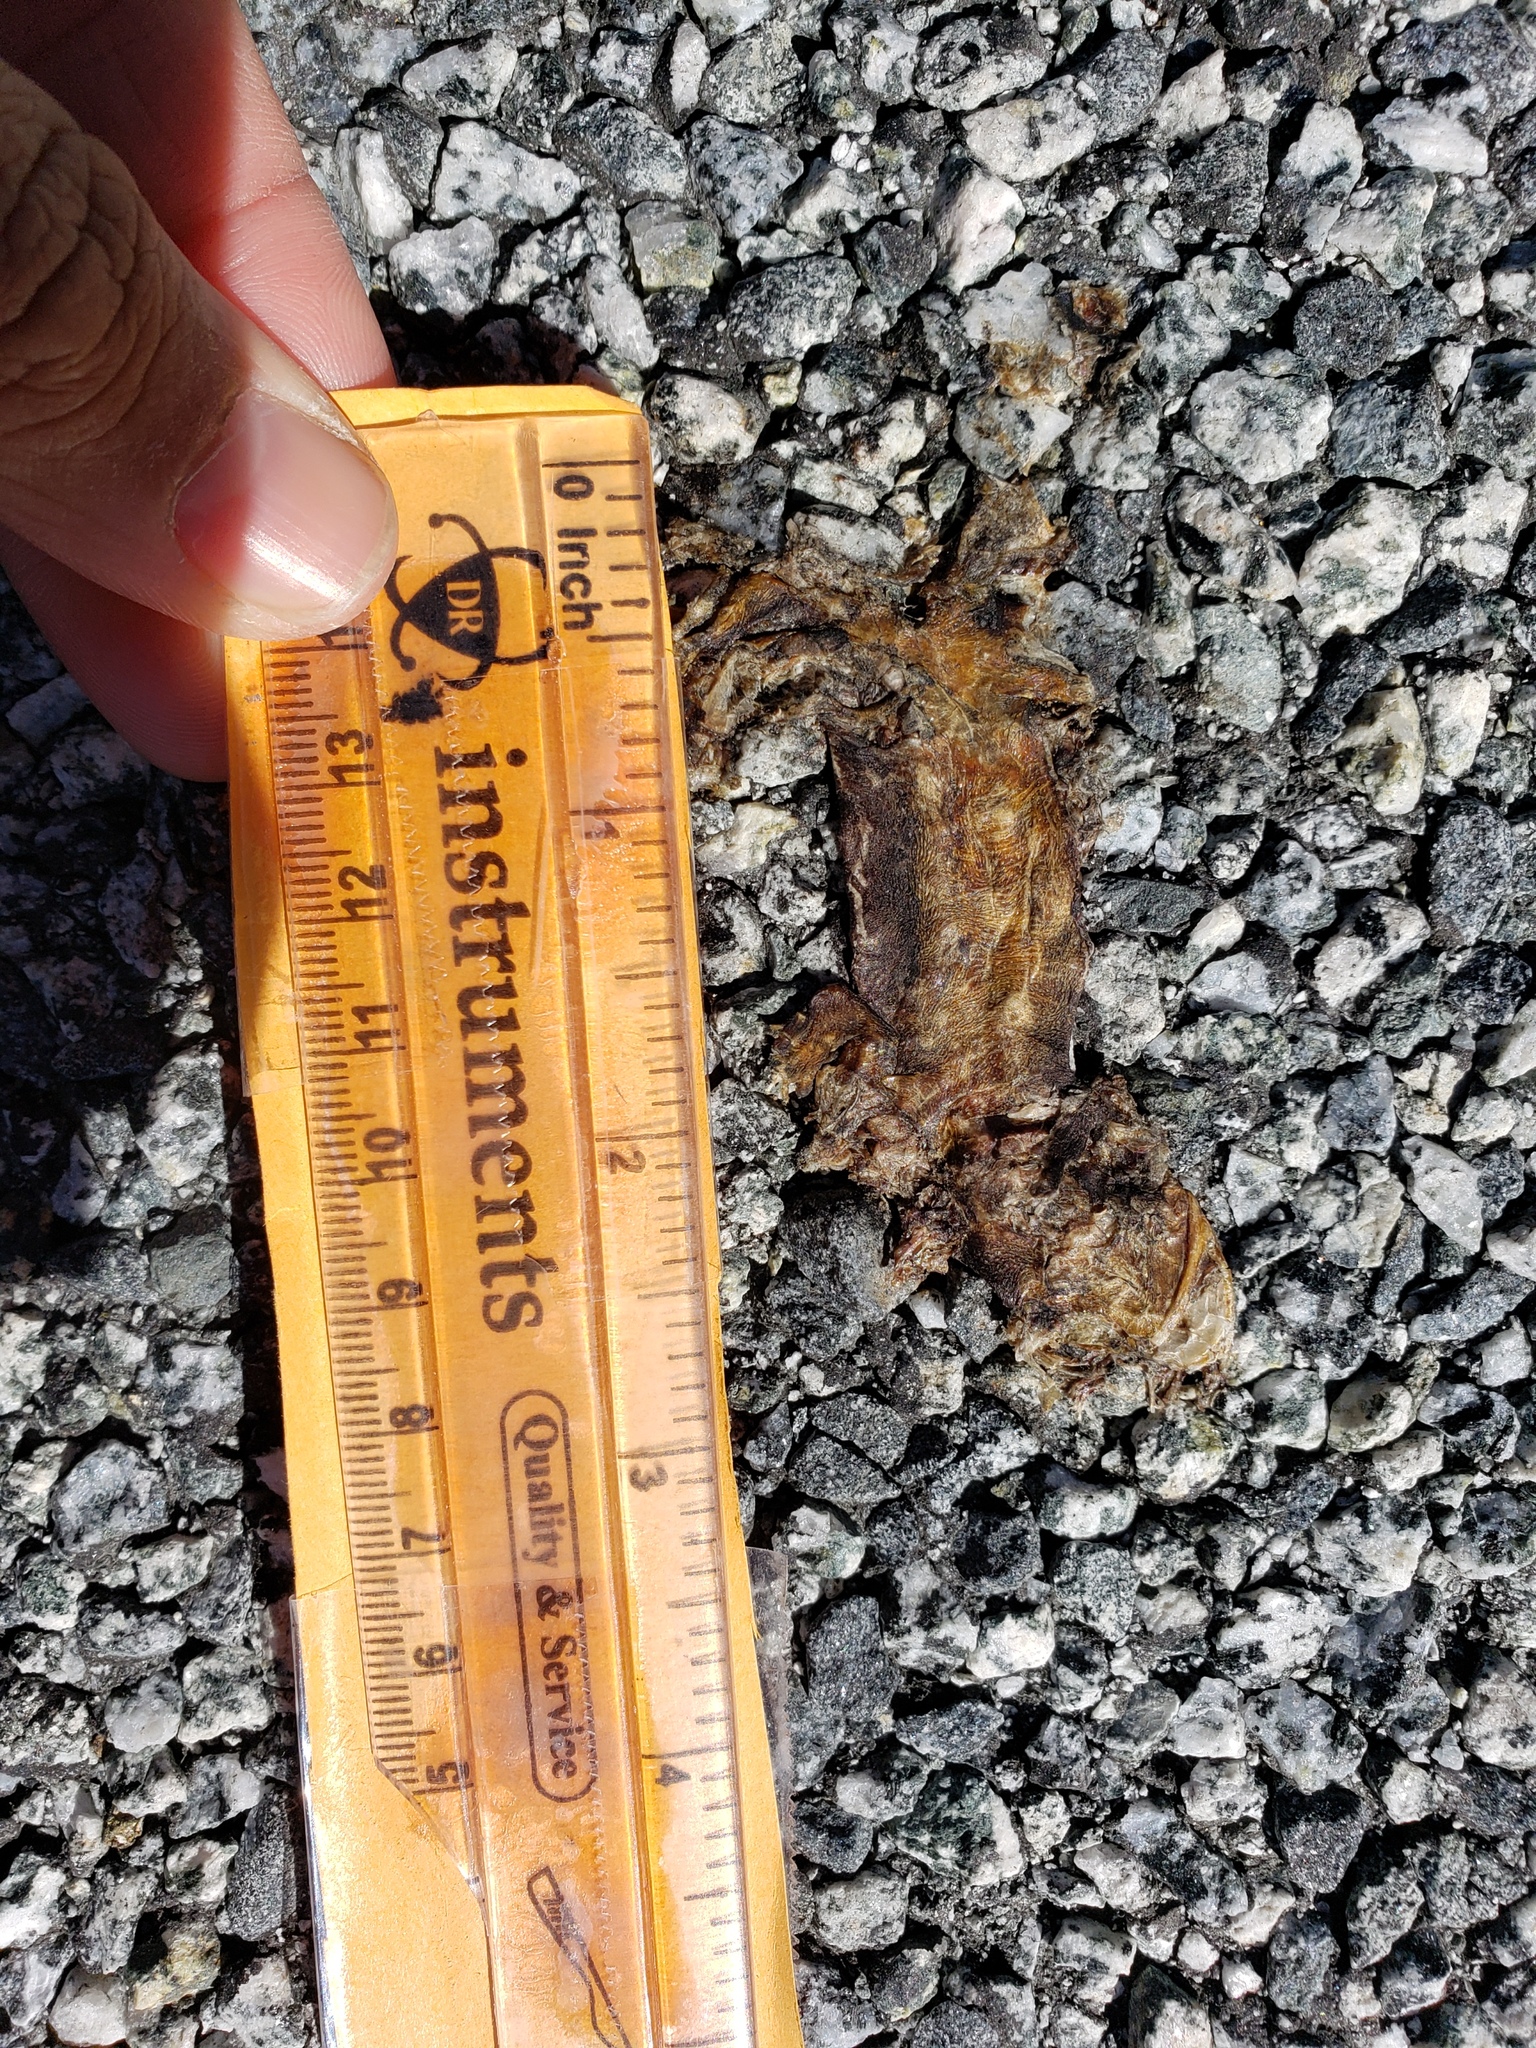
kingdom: Animalia
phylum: Chordata
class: Amphibia
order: Caudata
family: Salamandridae
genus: Taricha
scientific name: Taricha
